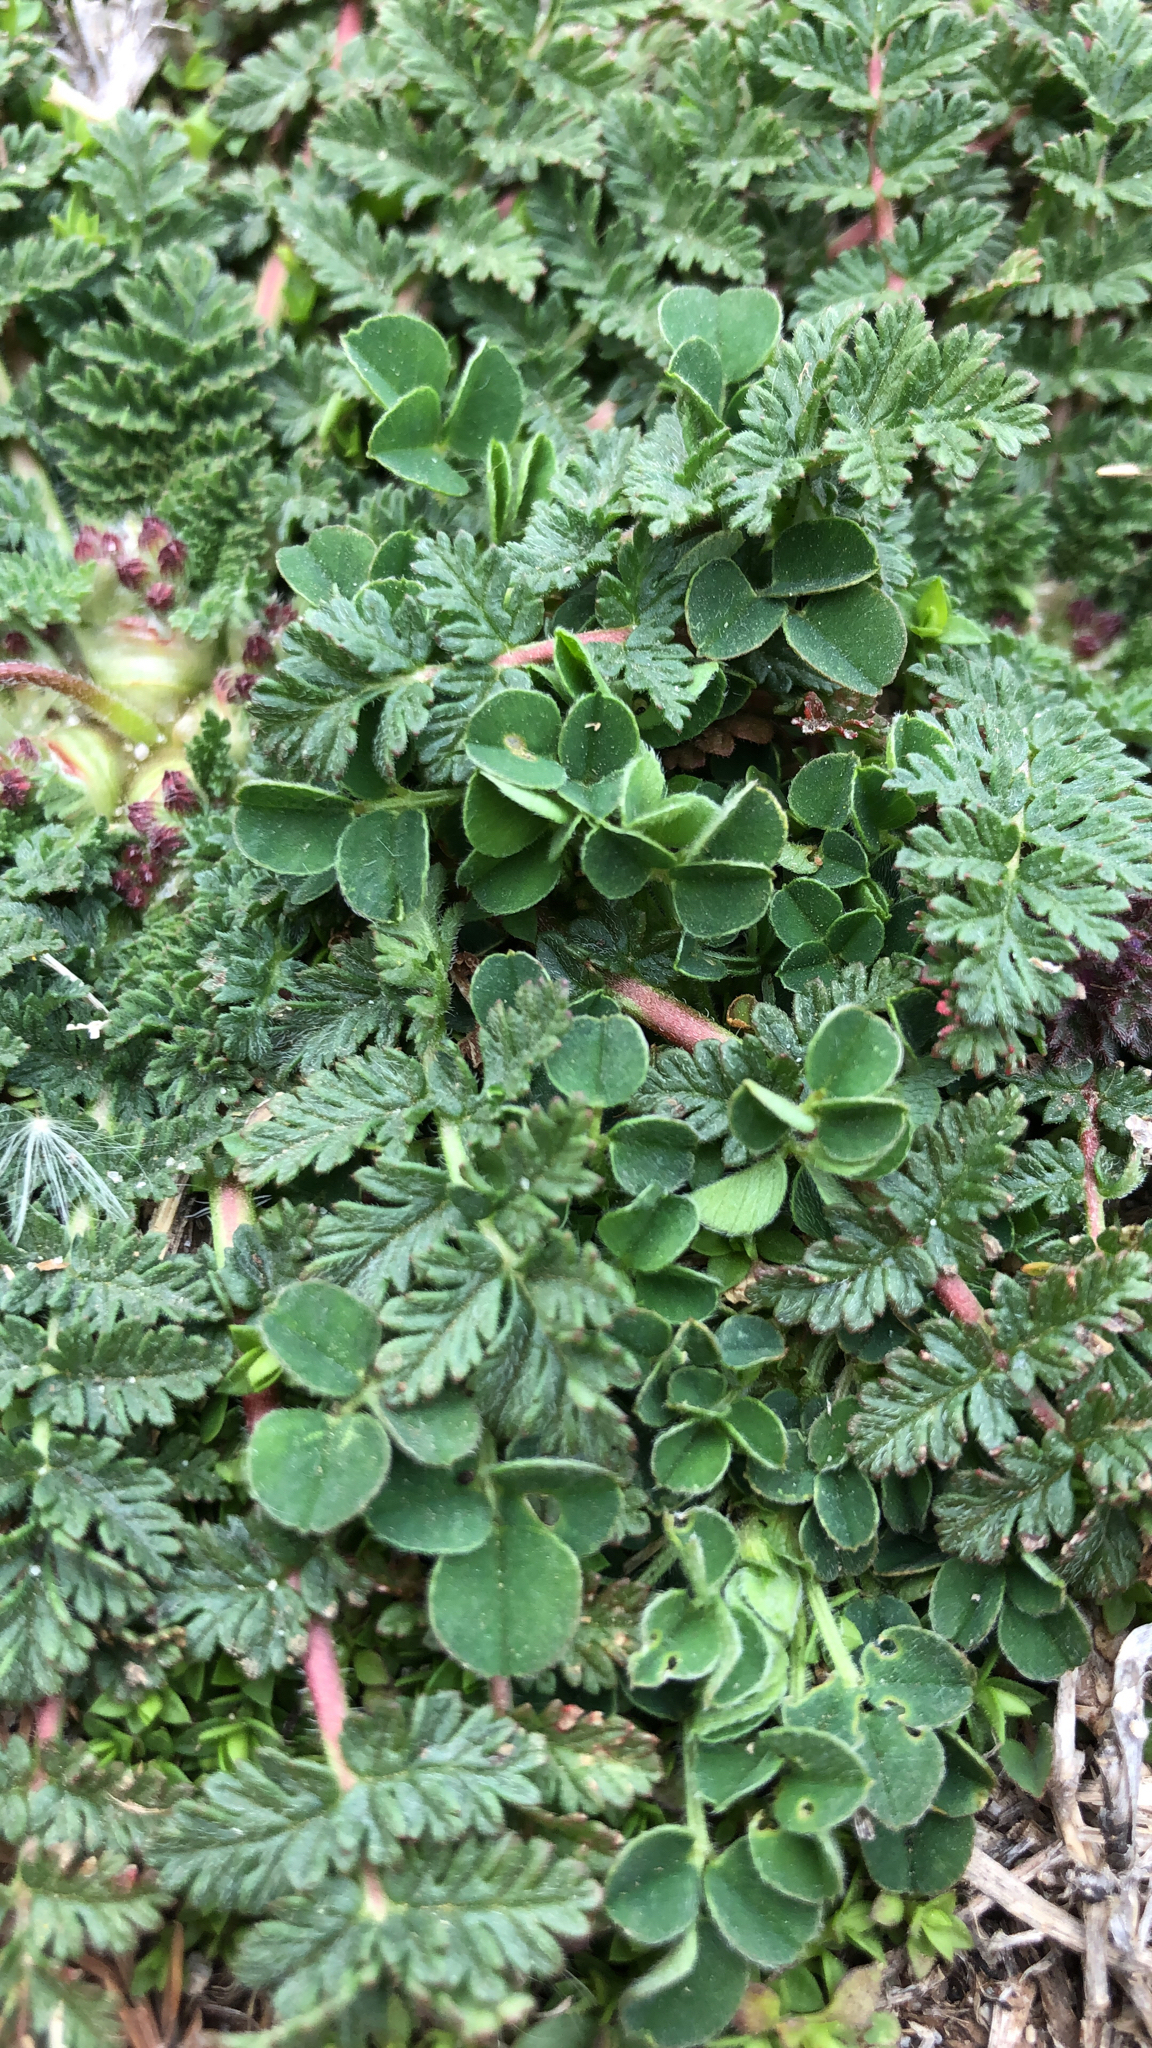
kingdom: Plantae
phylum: Tracheophyta
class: Magnoliopsida
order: Fabales
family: Fabaceae
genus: Medicago
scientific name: Medicago lupulina
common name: Black medick
